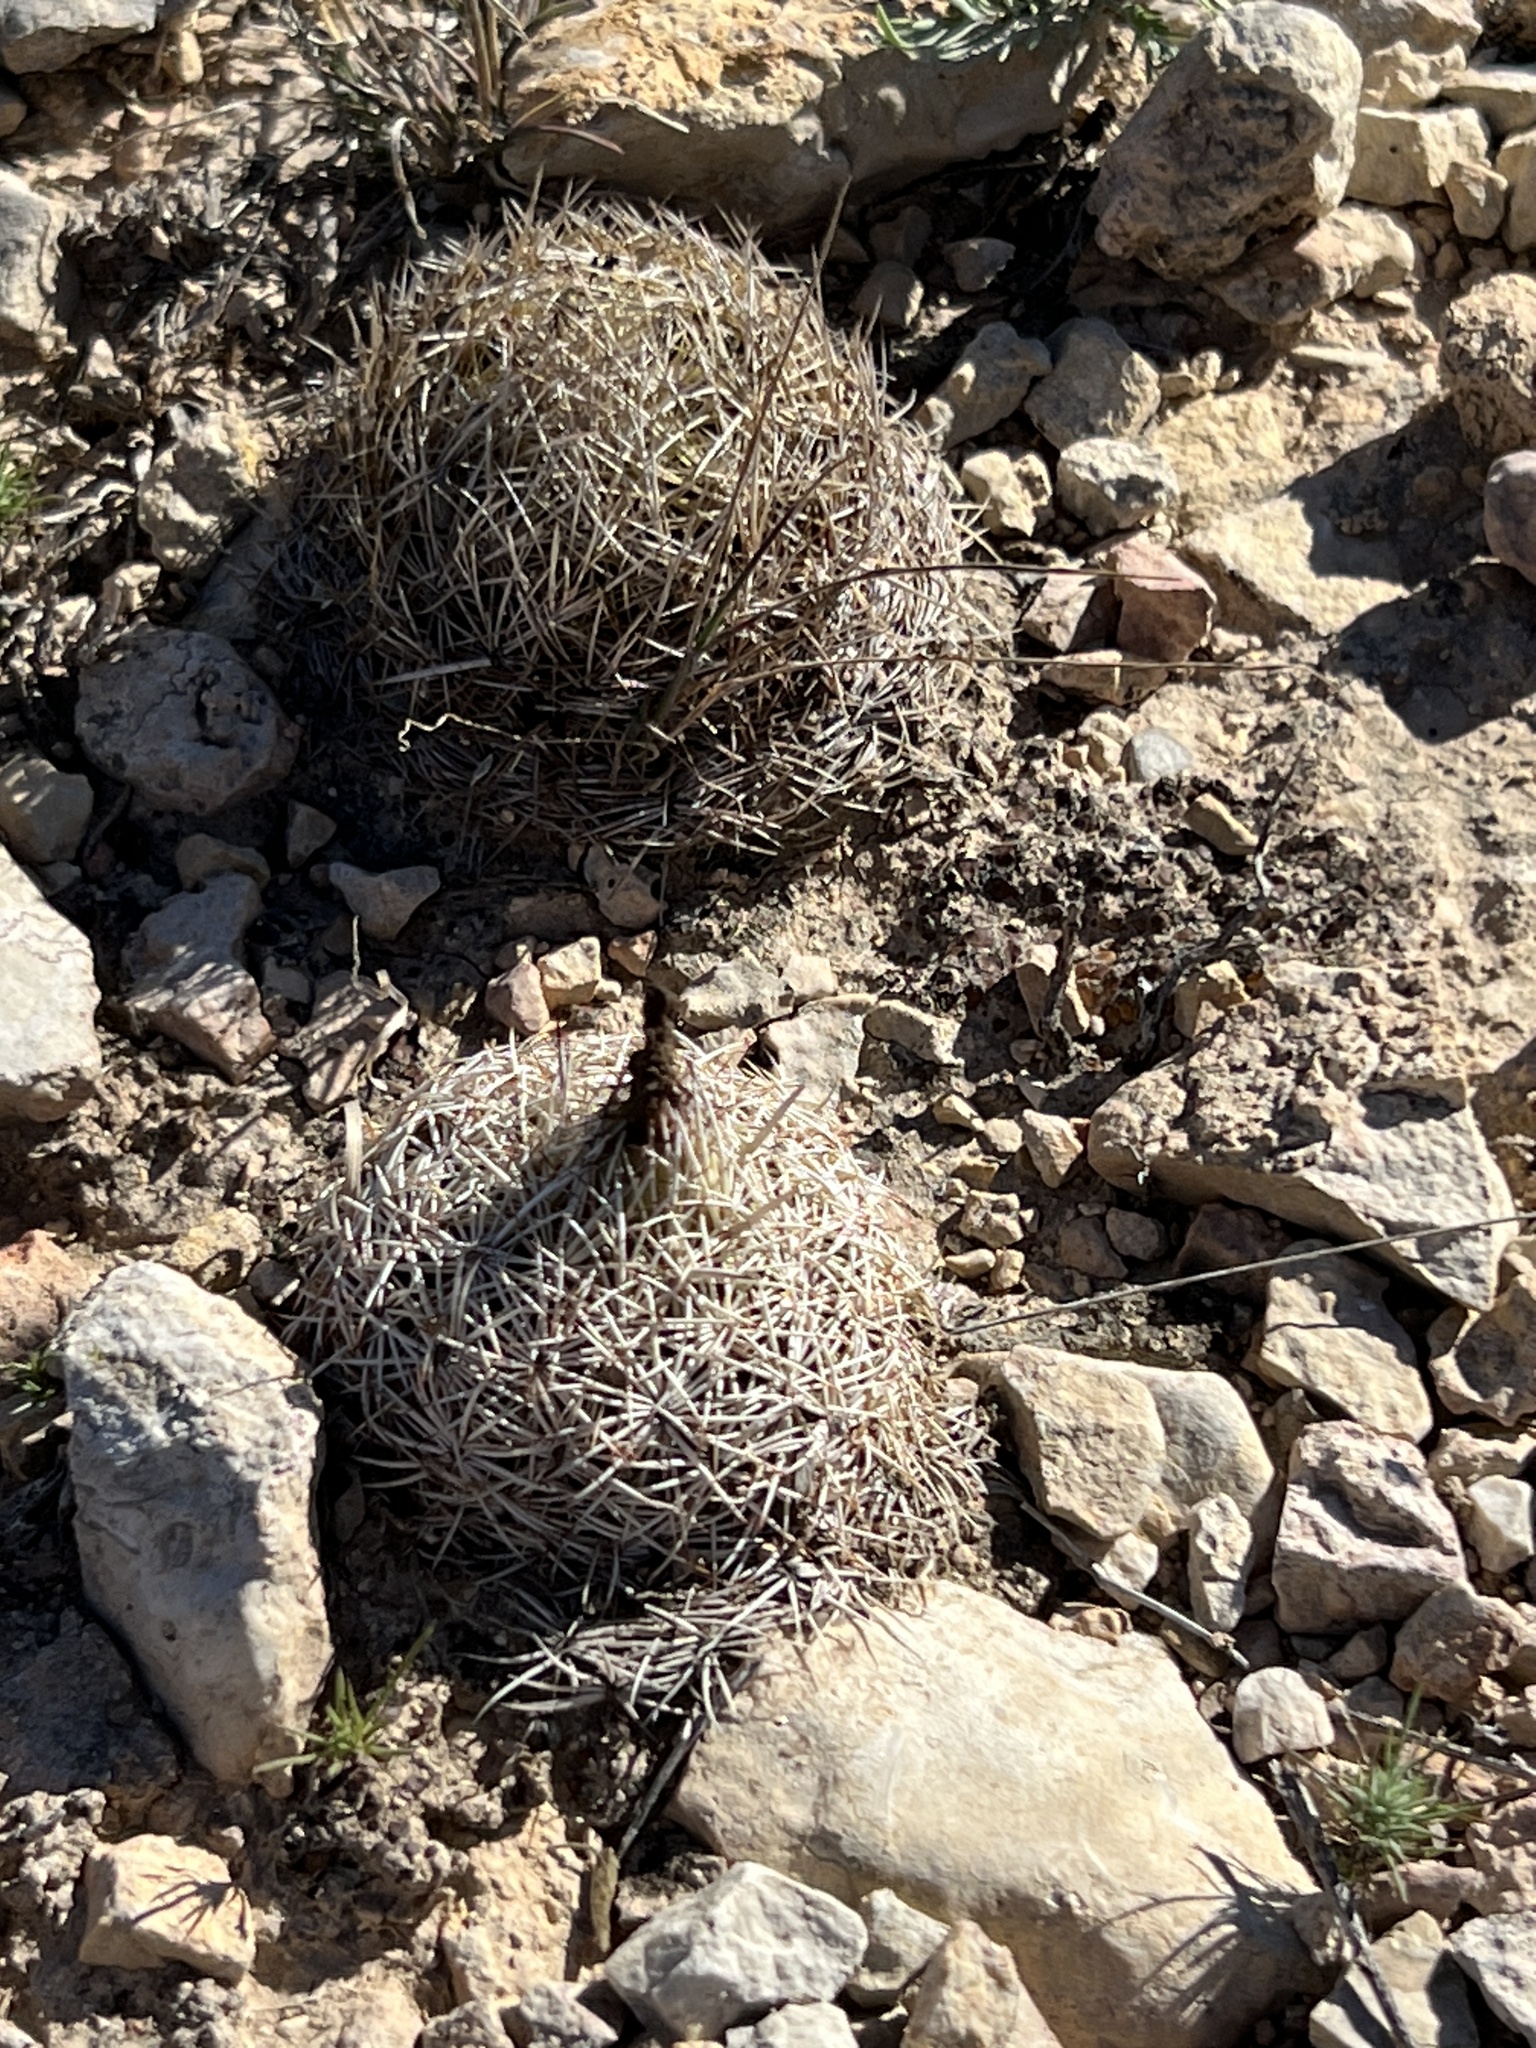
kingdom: Plantae
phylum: Tracheophyta
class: Magnoliopsida
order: Caryophyllales
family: Cactaceae
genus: Coryphantha
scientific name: Coryphantha echinus
